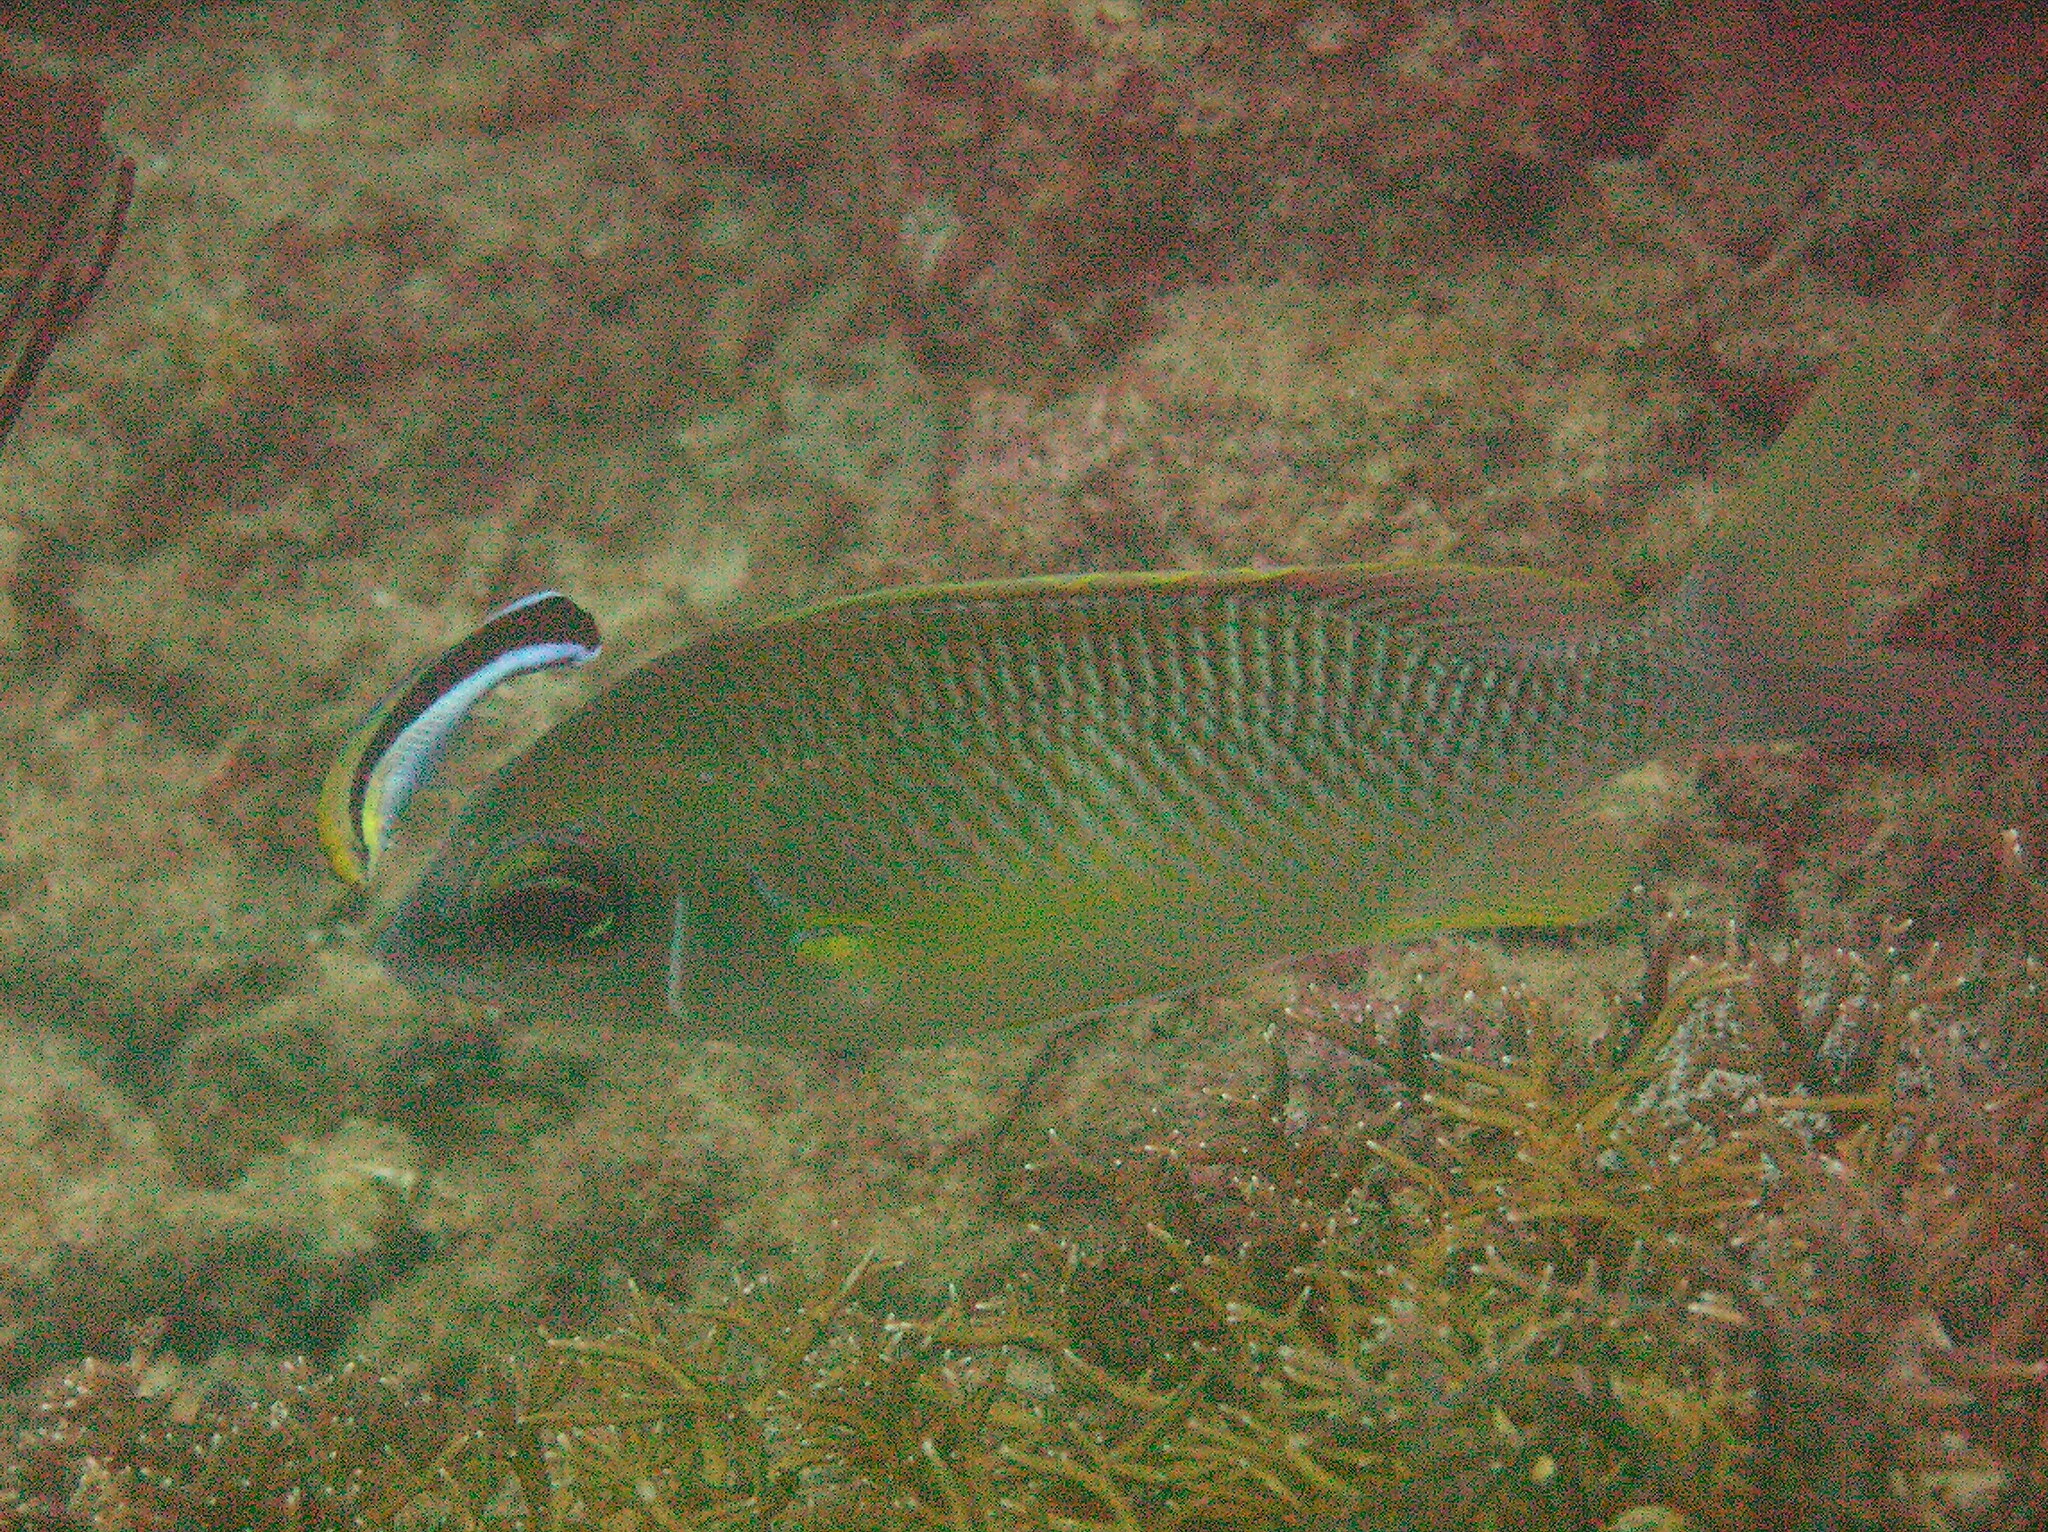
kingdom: Animalia
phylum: Chordata
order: Perciformes
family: Labridae
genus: Labroides
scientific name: Labroides dimidiatus
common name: Blue diesel wrasse
